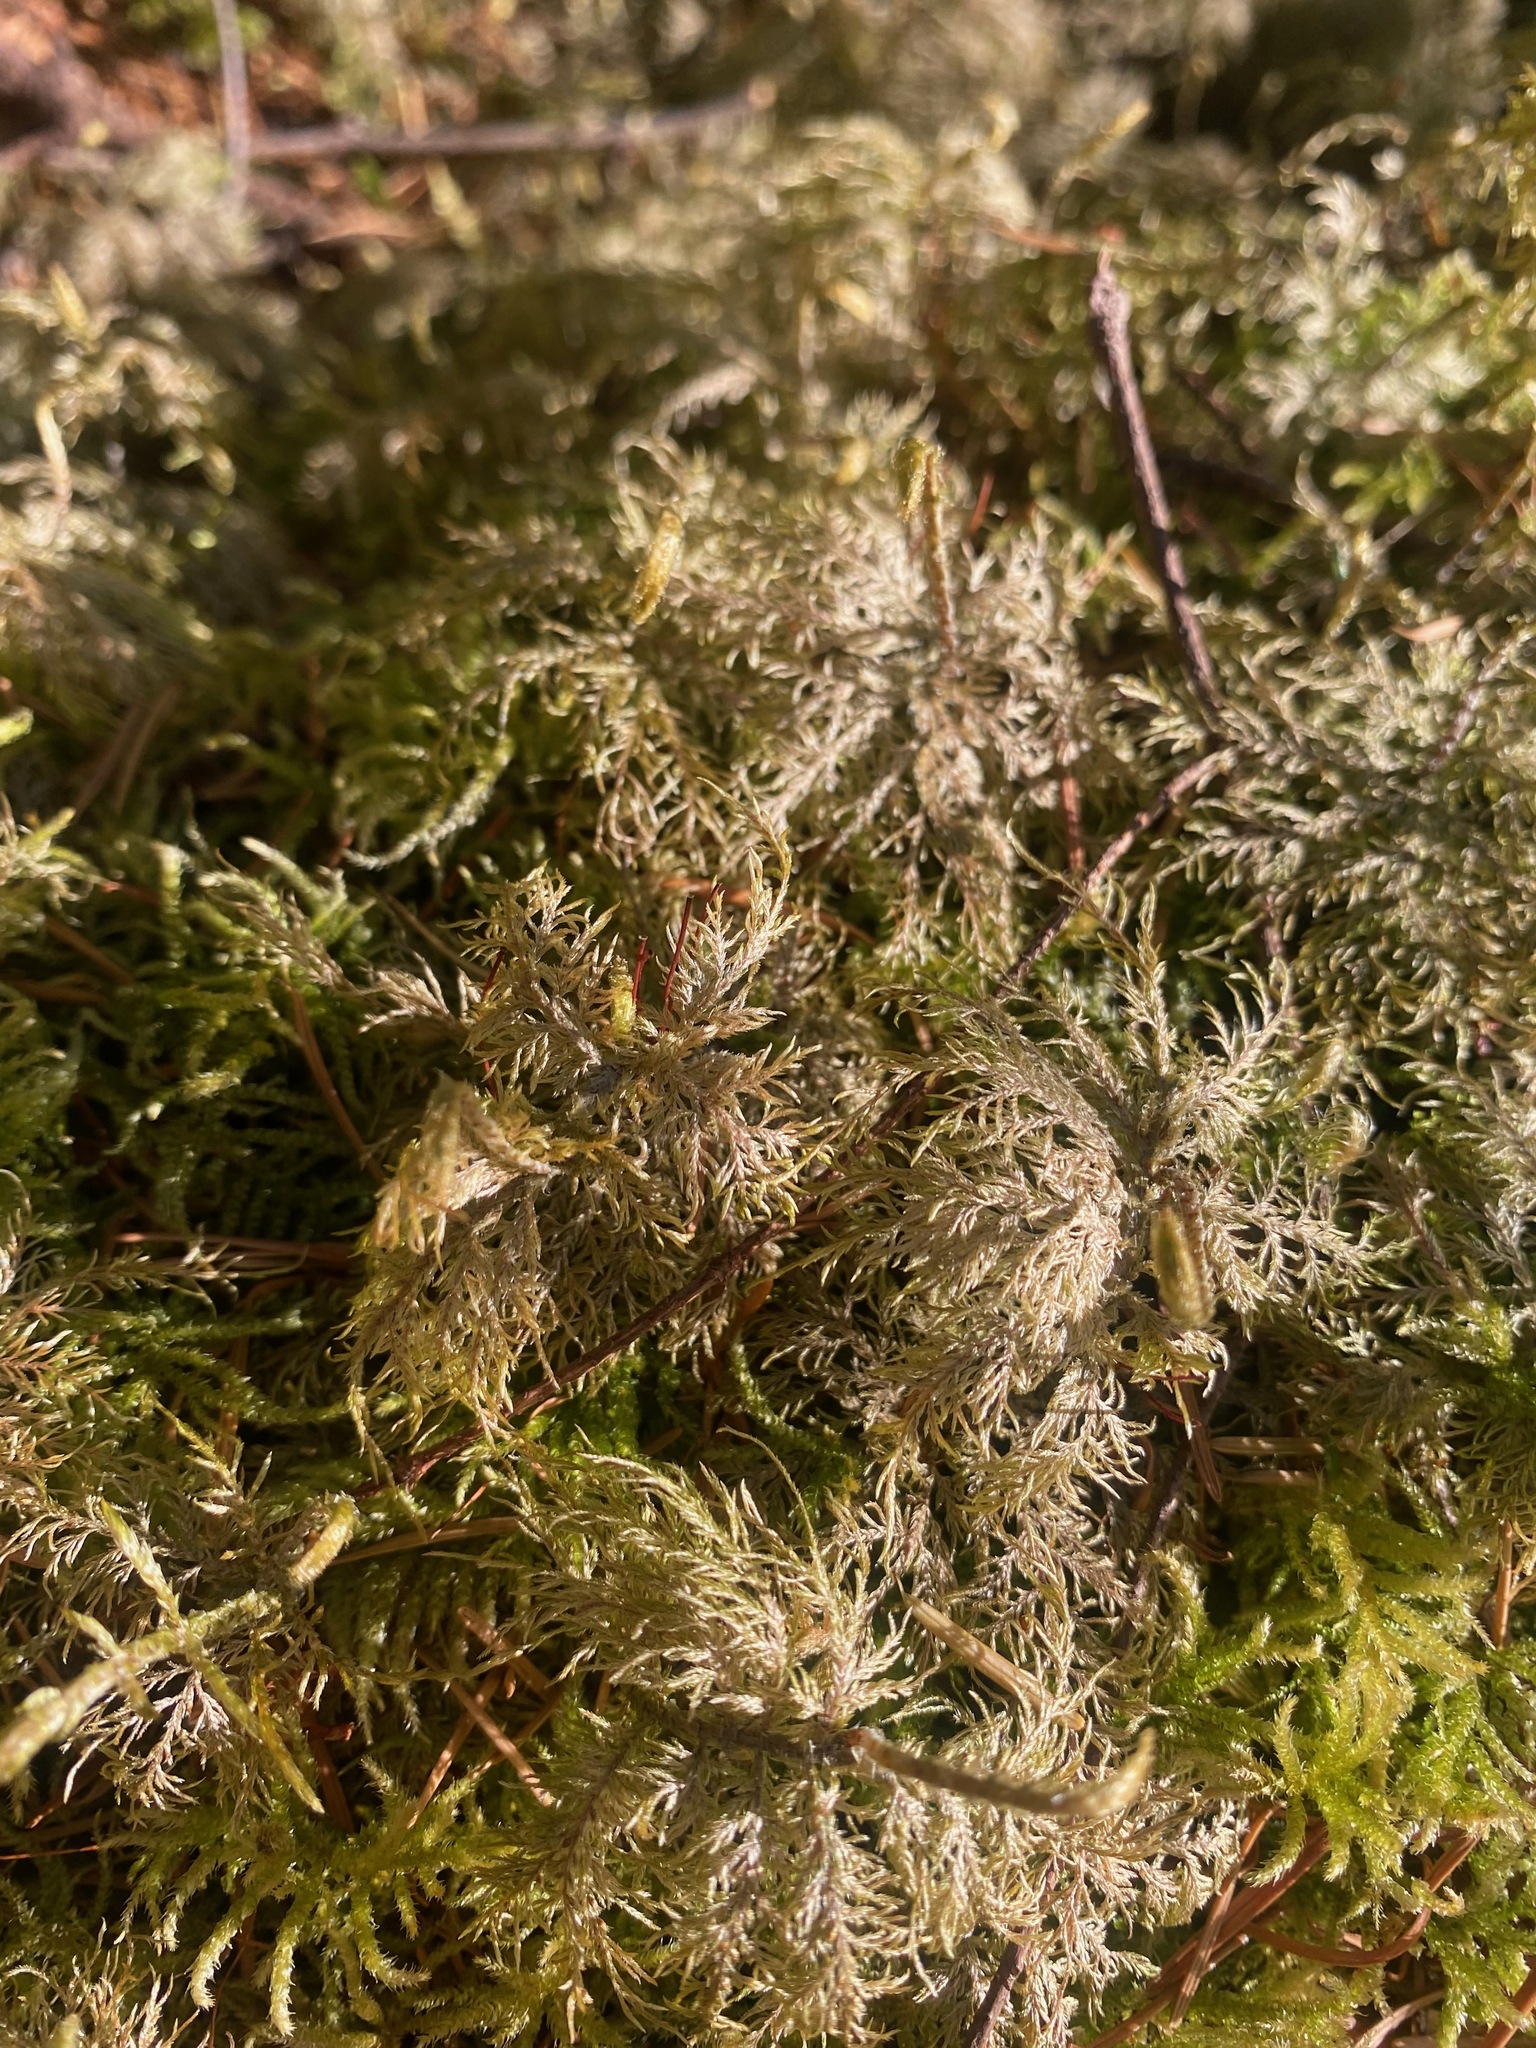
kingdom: Plantae
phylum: Bryophyta
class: Bryopsida
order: Hypnales
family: Hylocomiaceae
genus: Hylocomium
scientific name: Hylocomium splendens
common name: Stairstep moss
